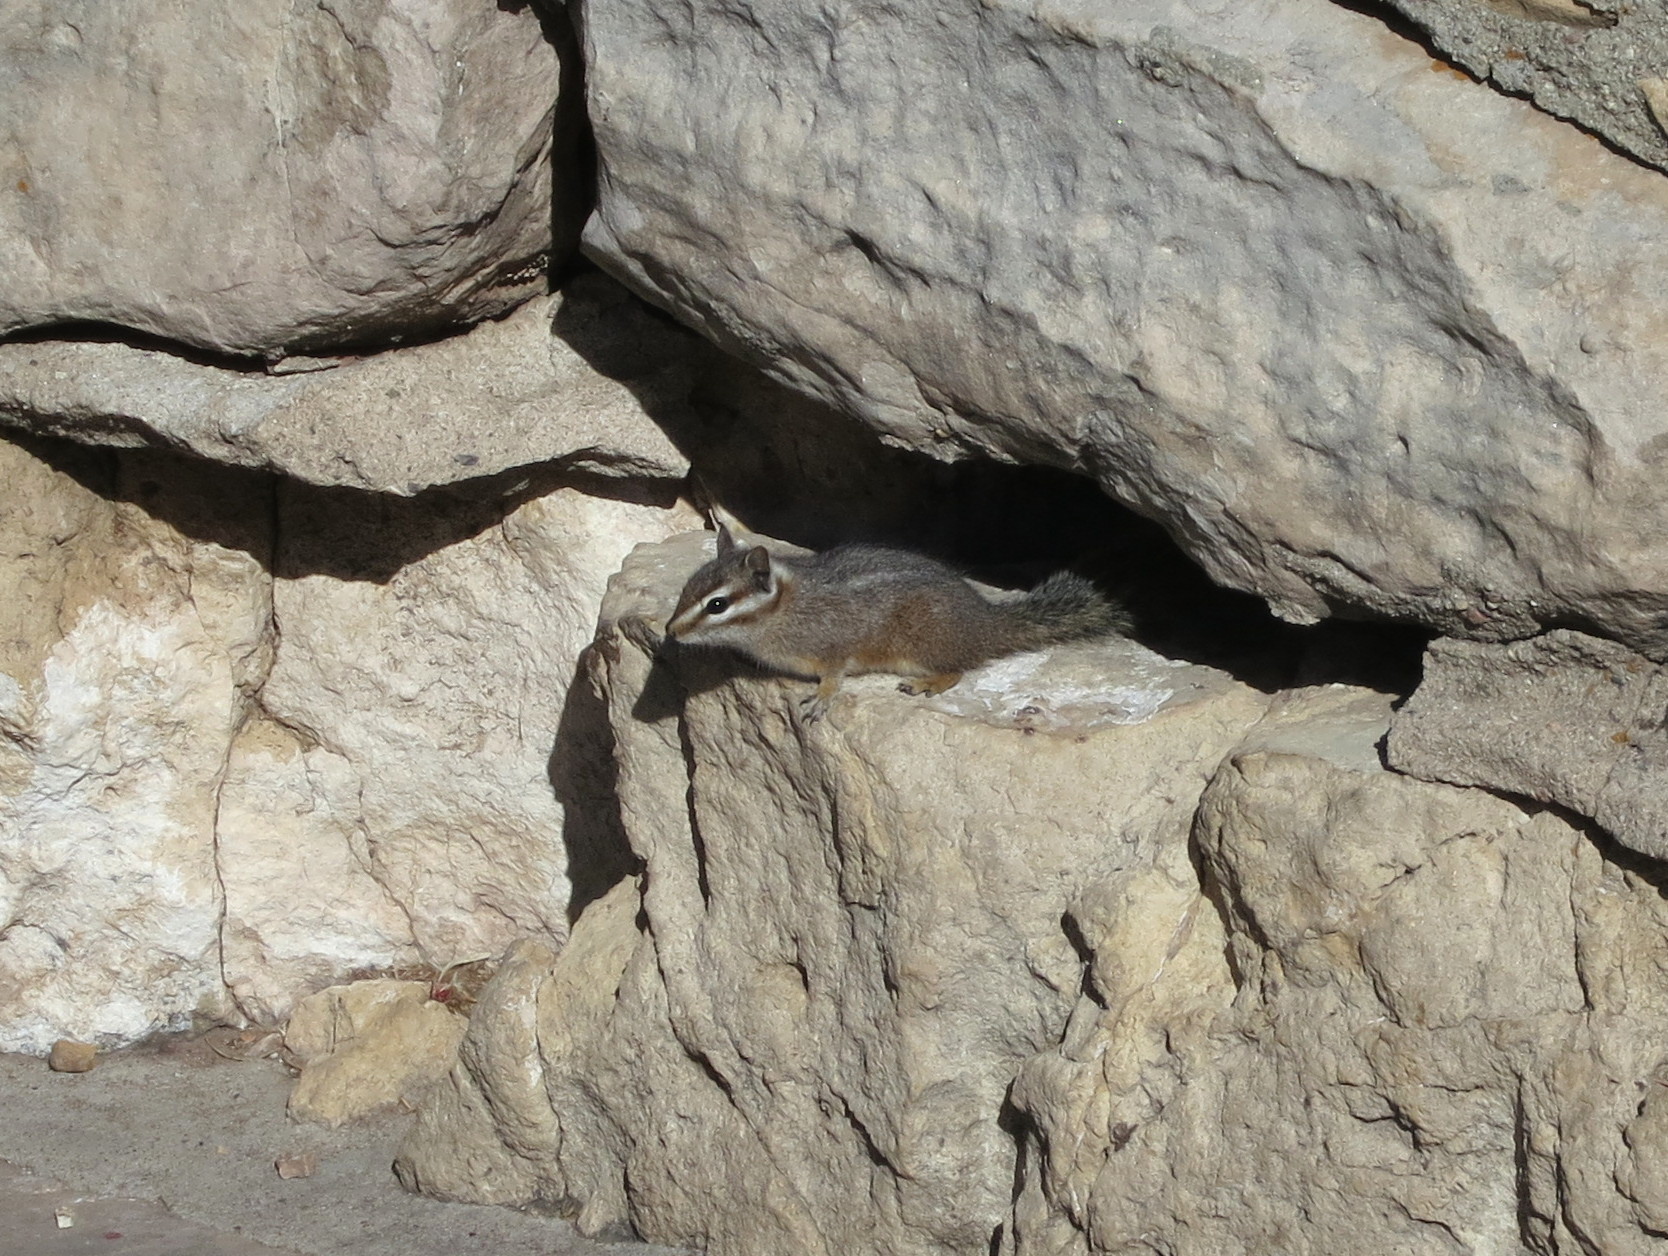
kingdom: Animalia
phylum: Chordata
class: Mammalia
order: Rodentia
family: Sciuridae
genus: Tamias
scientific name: Tamias dorsalis
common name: Cliff chipmunk
